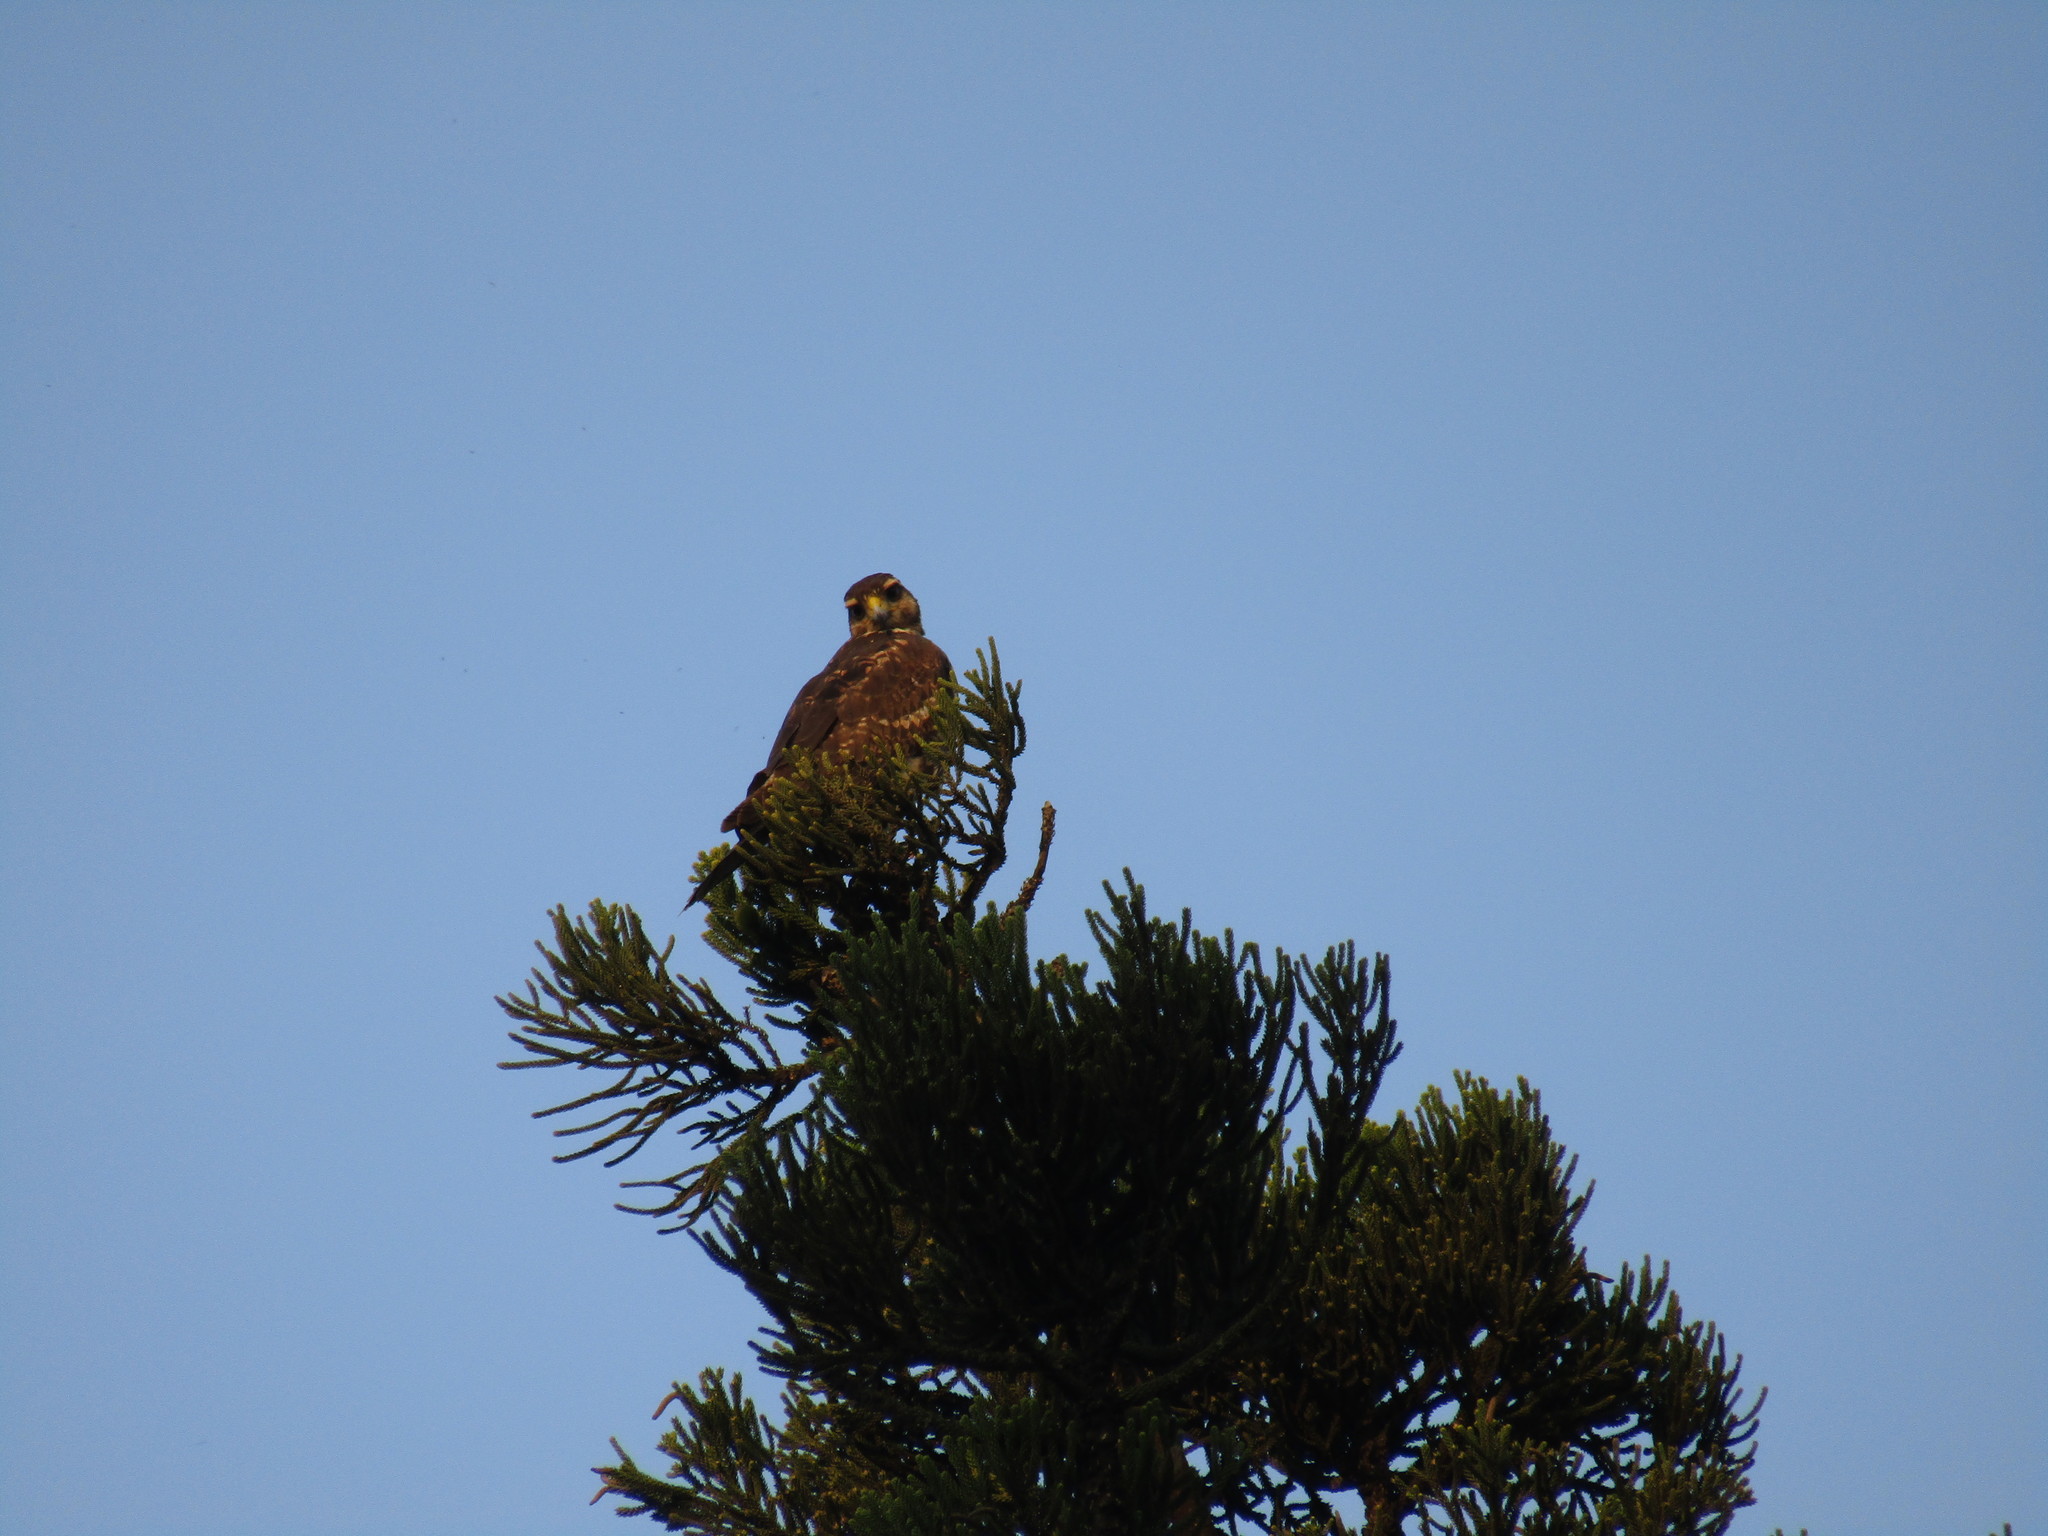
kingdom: Animalia
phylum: Chordata
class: Aves
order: Accipitriformes
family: Accipitridae
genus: Parabuteo
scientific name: Parabuteo unicinctus
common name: Harris's hawk
